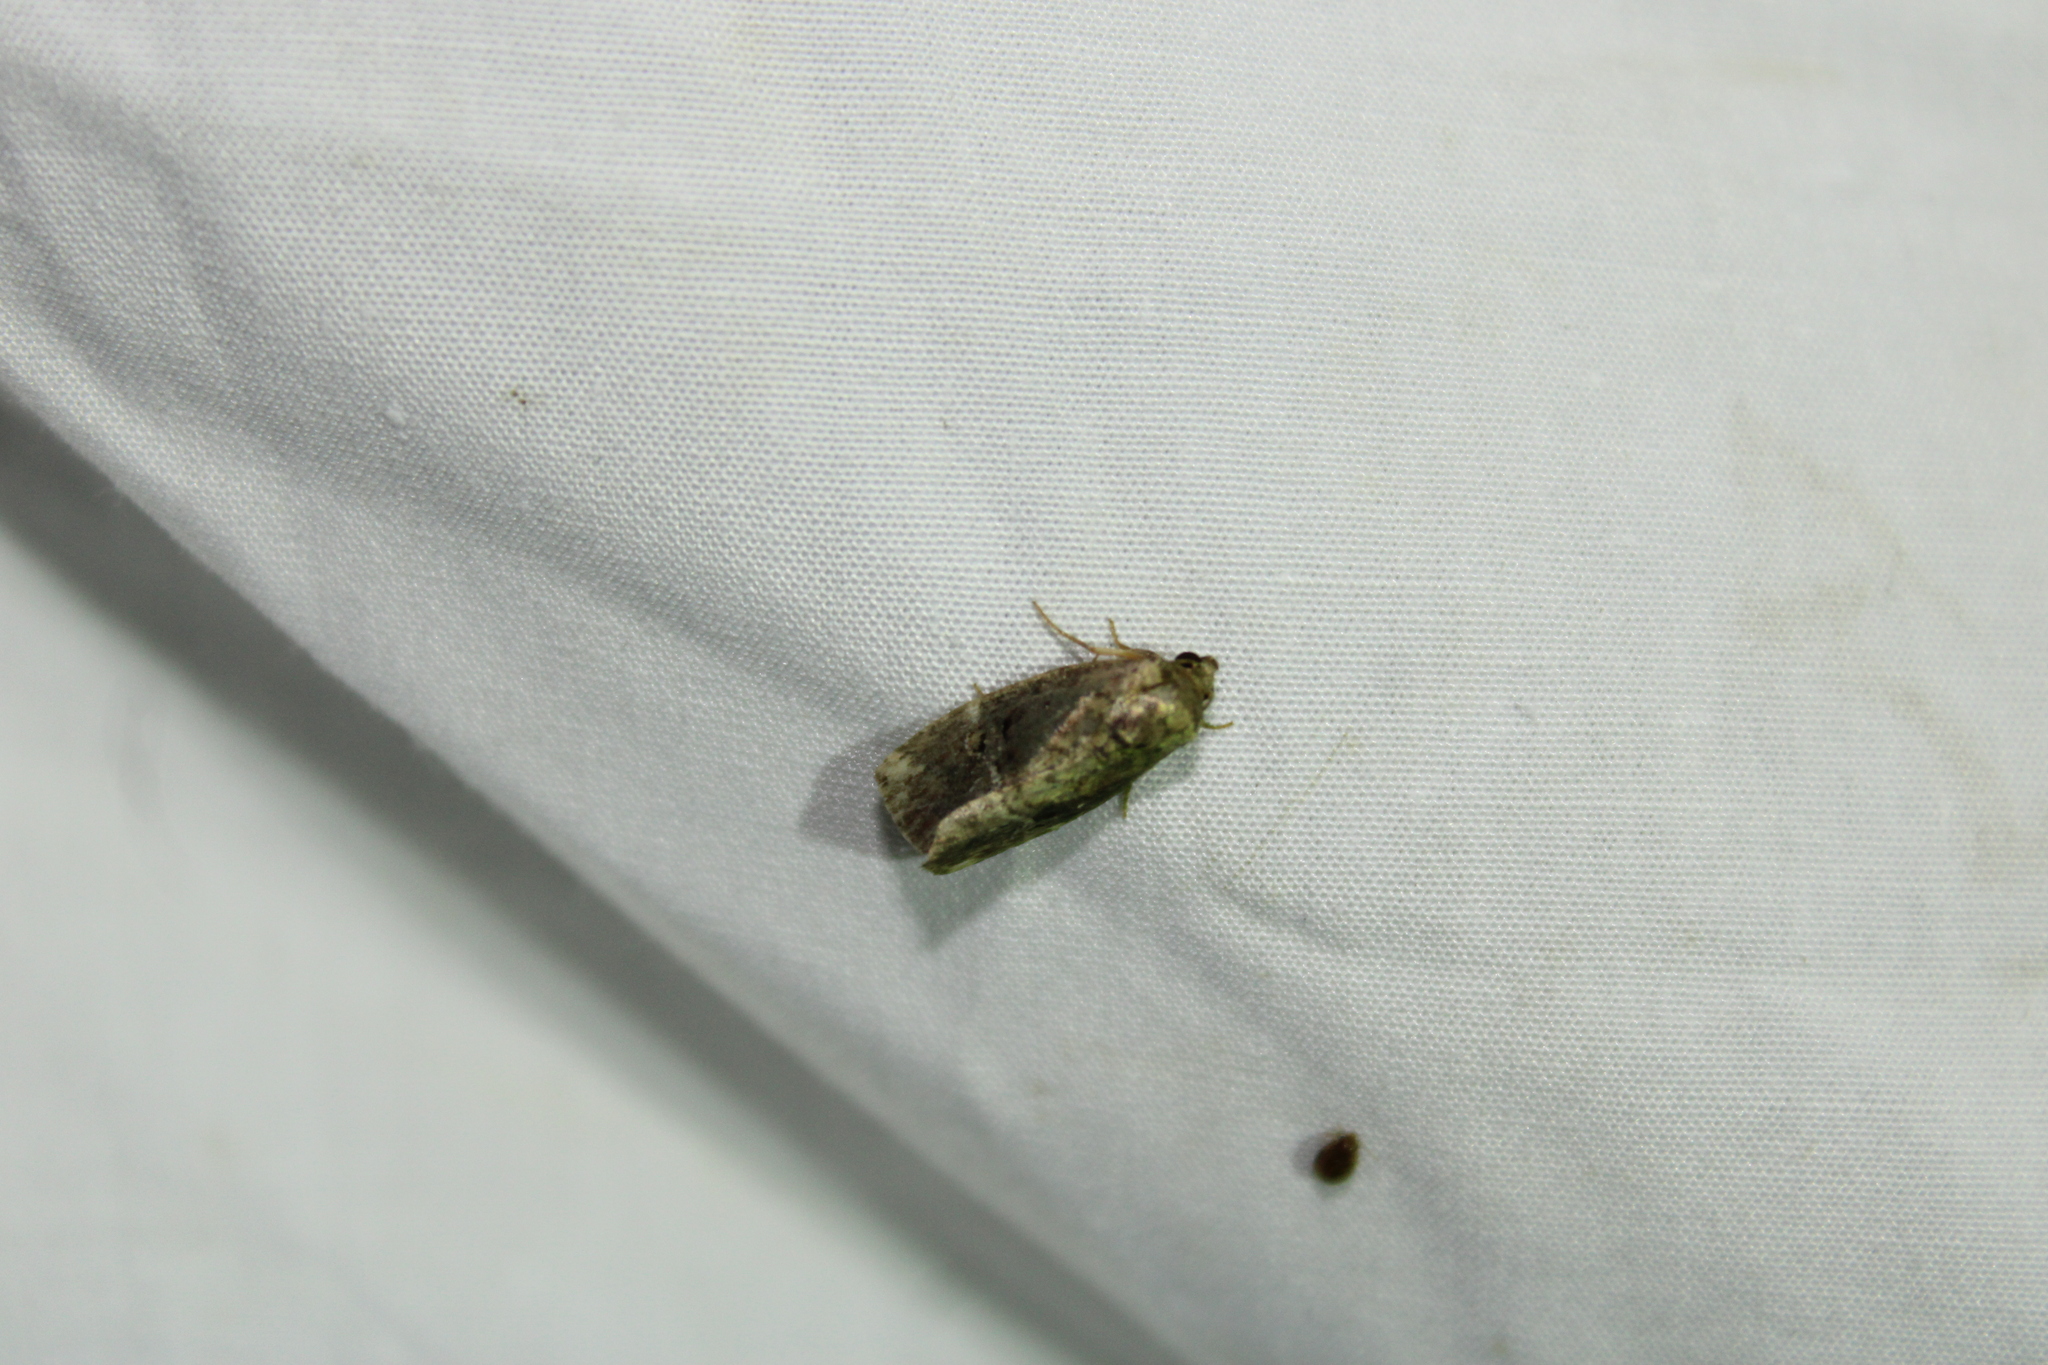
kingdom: Animalia
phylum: Arthropoda
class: Insecta
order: Lepidoptera
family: Noctuidae
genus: Elaphria
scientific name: Elaphria versicolor
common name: Fir harlequin
